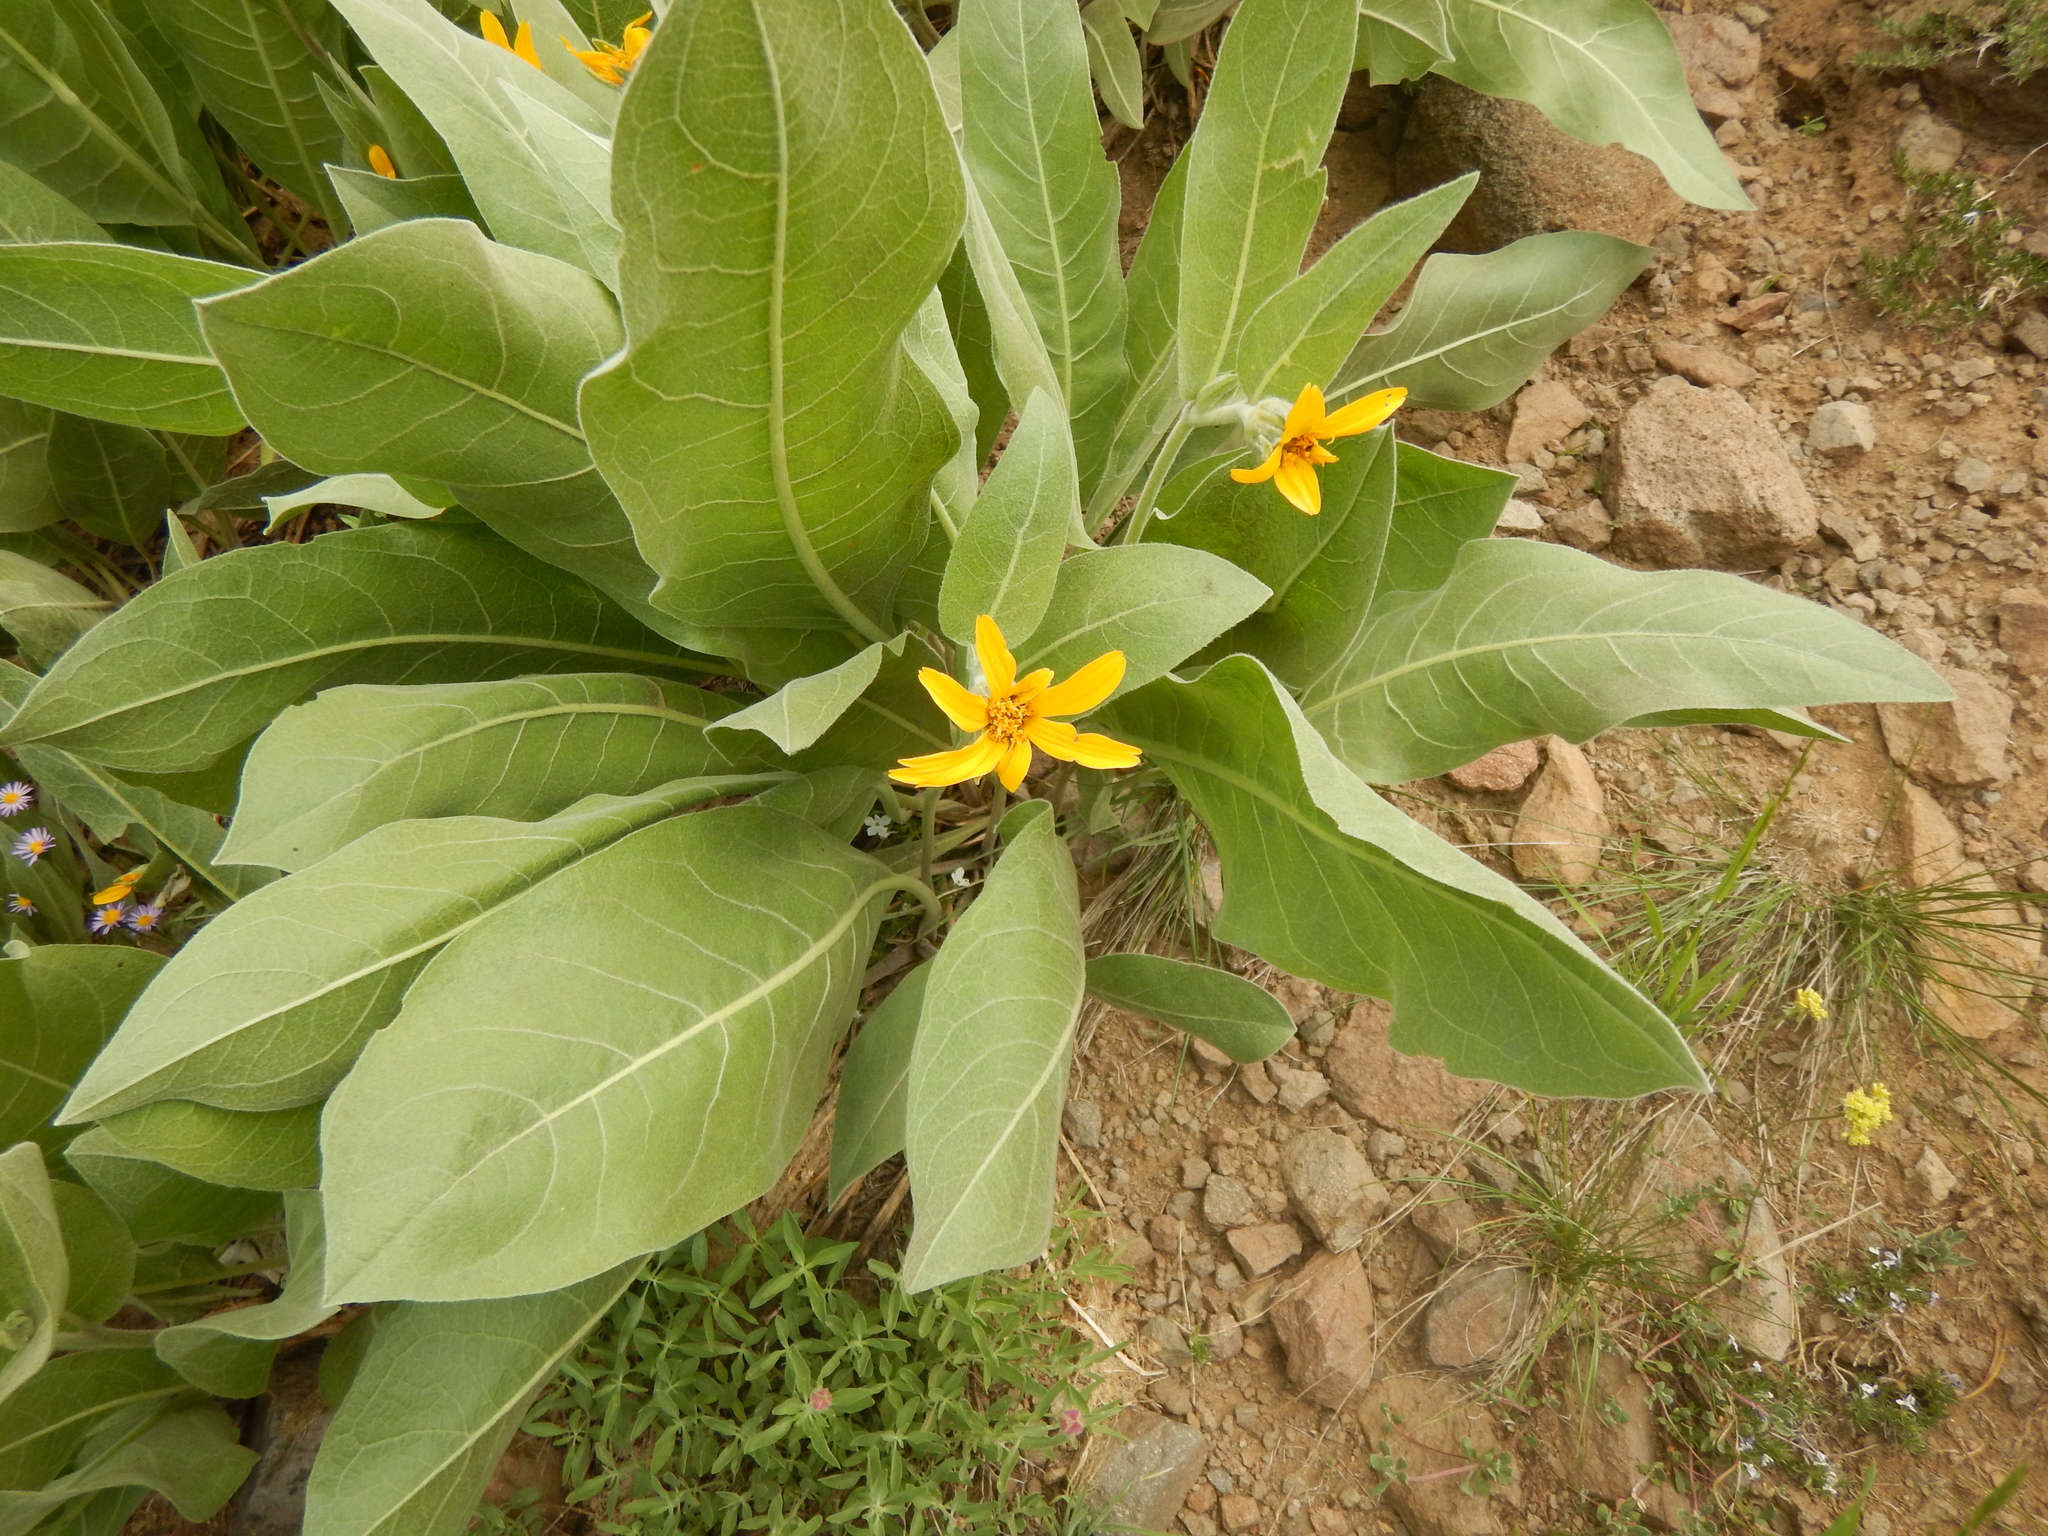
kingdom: Plantae
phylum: Tracheophyta
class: Magnoliopsida
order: Asterales
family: Asteraceae
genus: Wyethia
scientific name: Wyethia mollis
